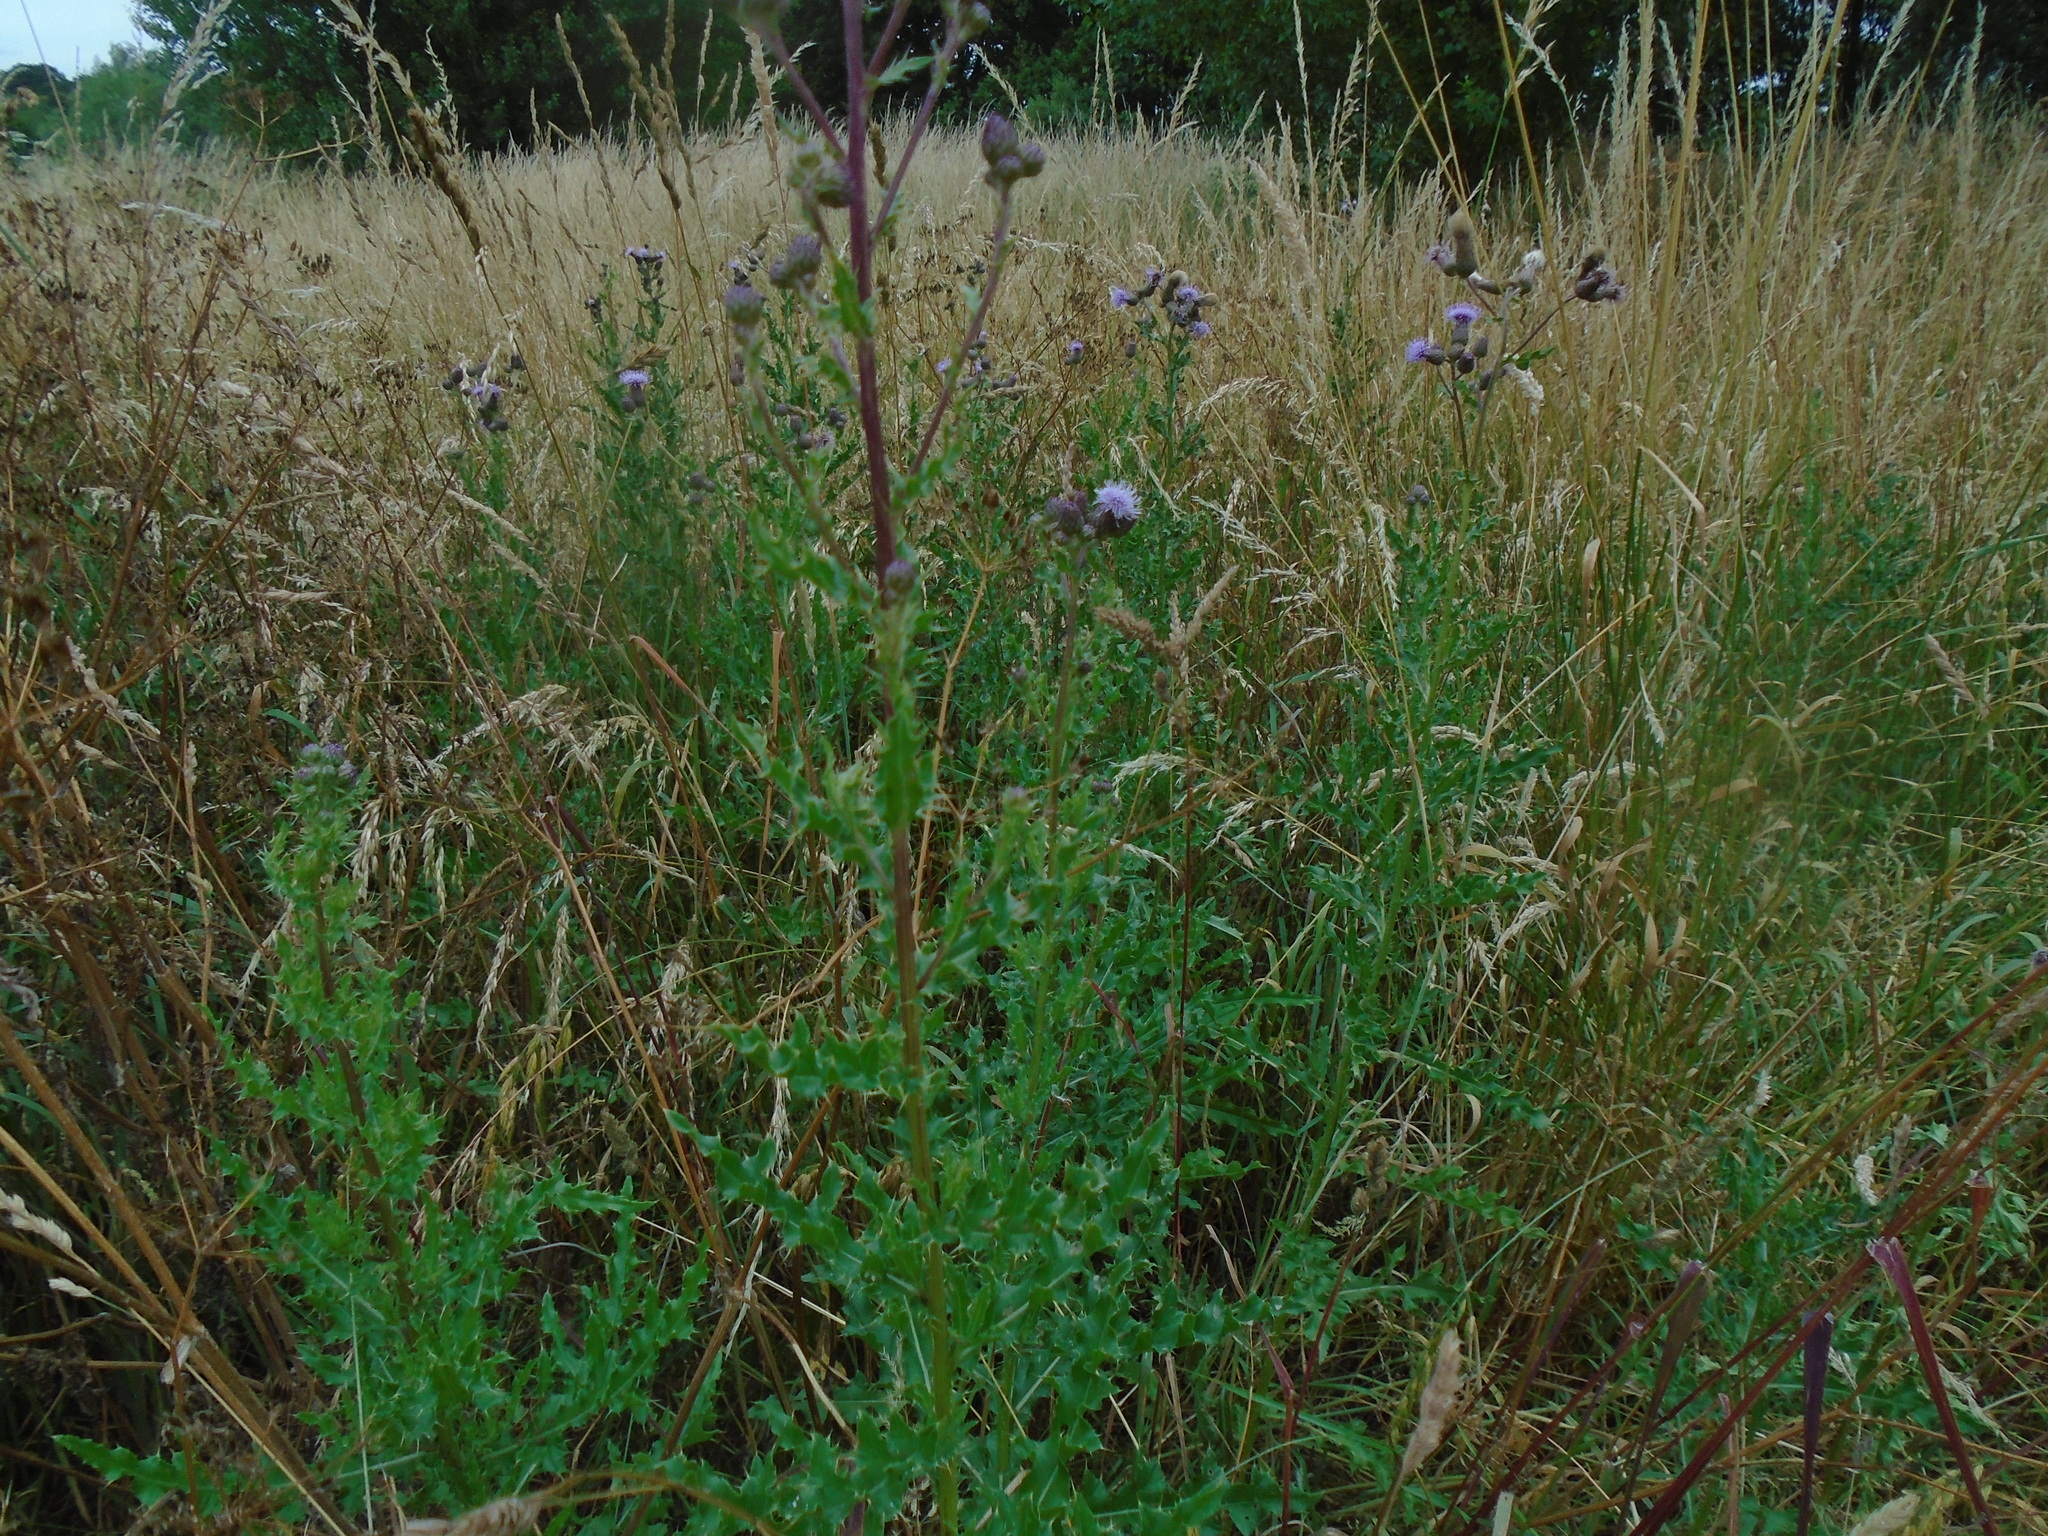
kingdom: Plantae
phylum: Tracheophyta
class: Magnoliopsida
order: Asterales
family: Asteraceae
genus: Cirsium
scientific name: Cirsium arvense
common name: Creeping thistle
